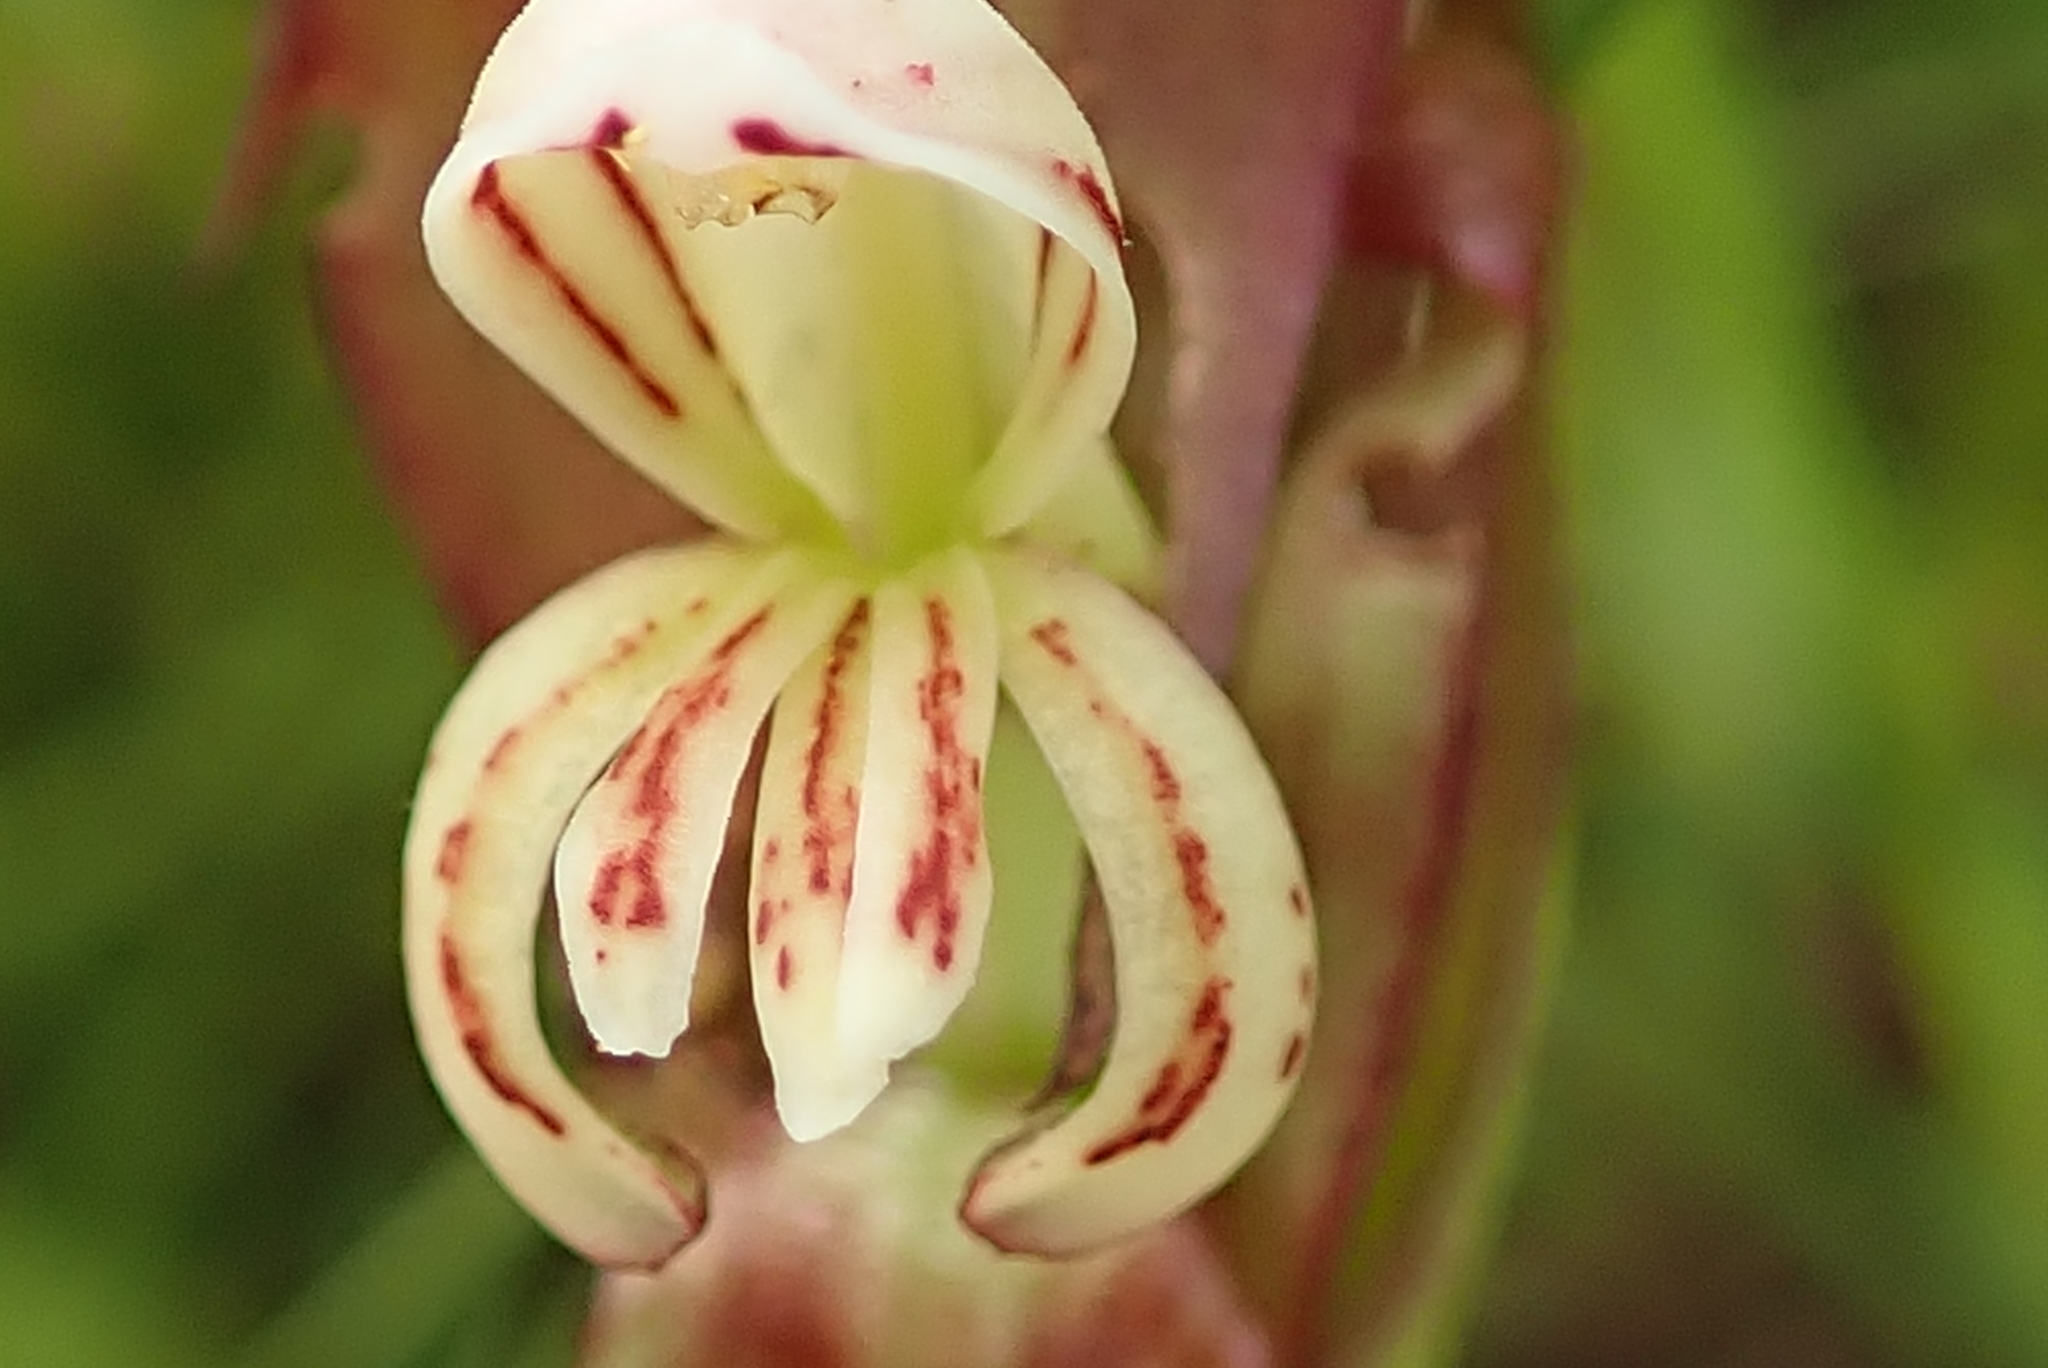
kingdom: Plantae
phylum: Tracheophyta
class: Liliopsida
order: Asparagales
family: Orchidaceae
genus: Satyrium
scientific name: Satyrium cristatum
